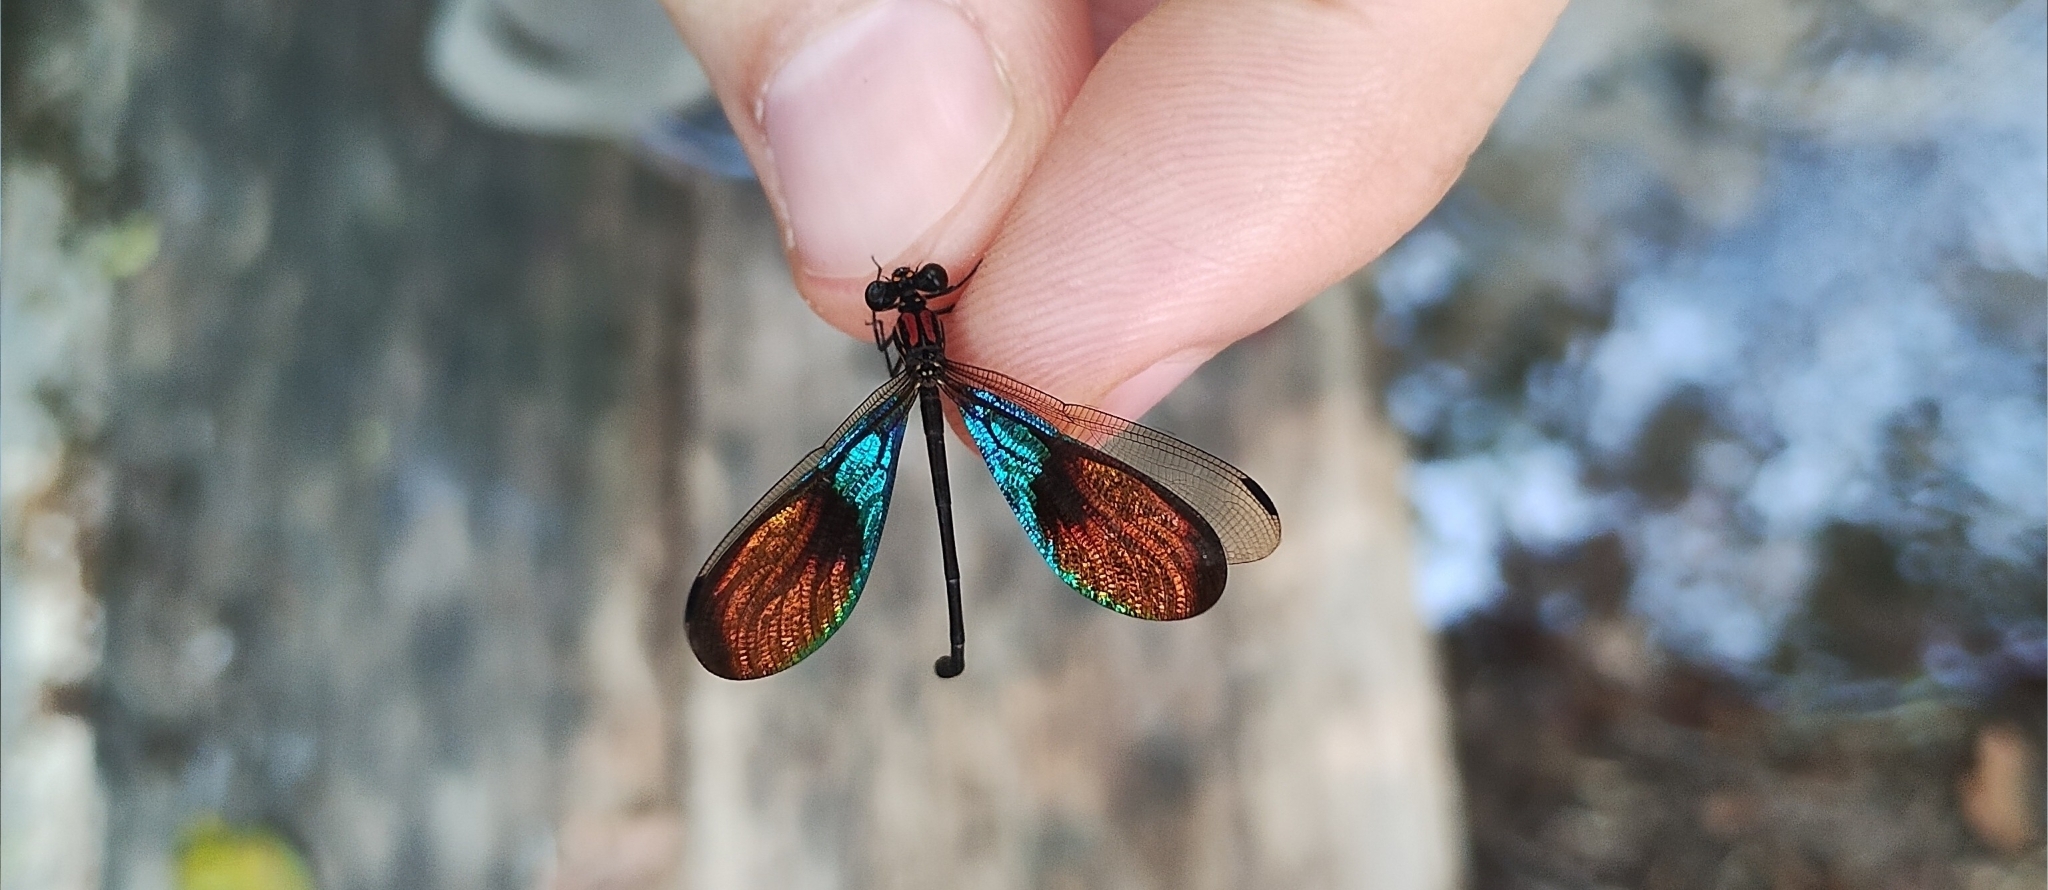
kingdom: Animalia
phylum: Arthropoda
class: Insecta
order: Odonata
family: Polythoridae
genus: Chalcopteryx
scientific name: Chalcopteryx rutilans
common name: Glitterwing
